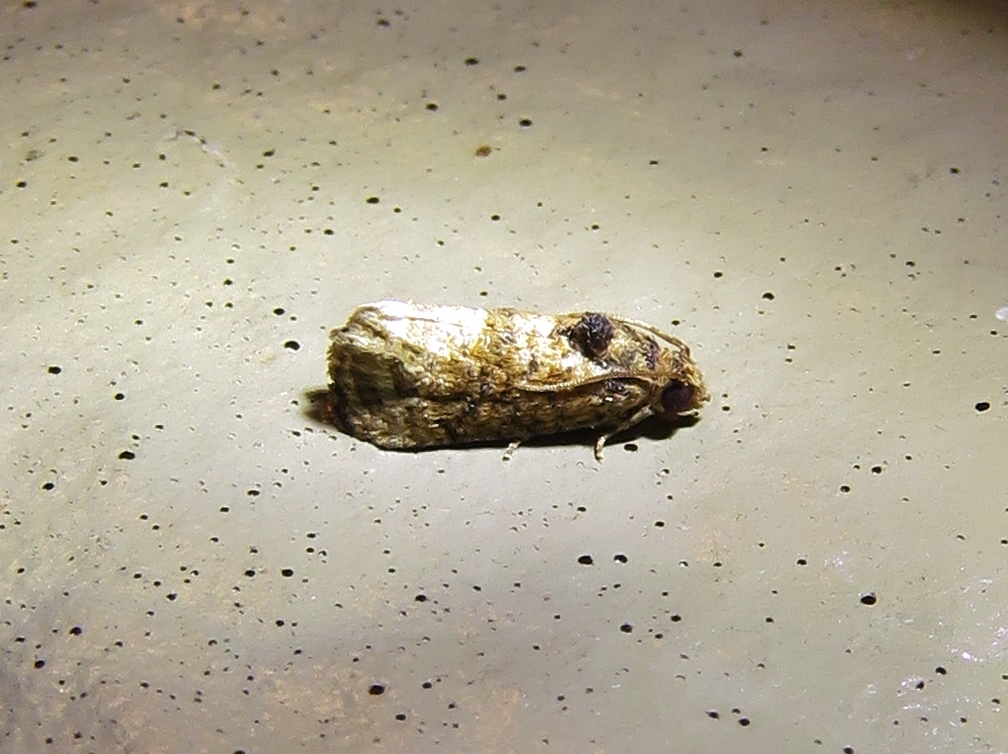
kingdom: Animalia
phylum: Arthropoda
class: Insecta
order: Lepidoptera
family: Tortricidae
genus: Ecdytolopha
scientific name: Ecdytolopha mana
